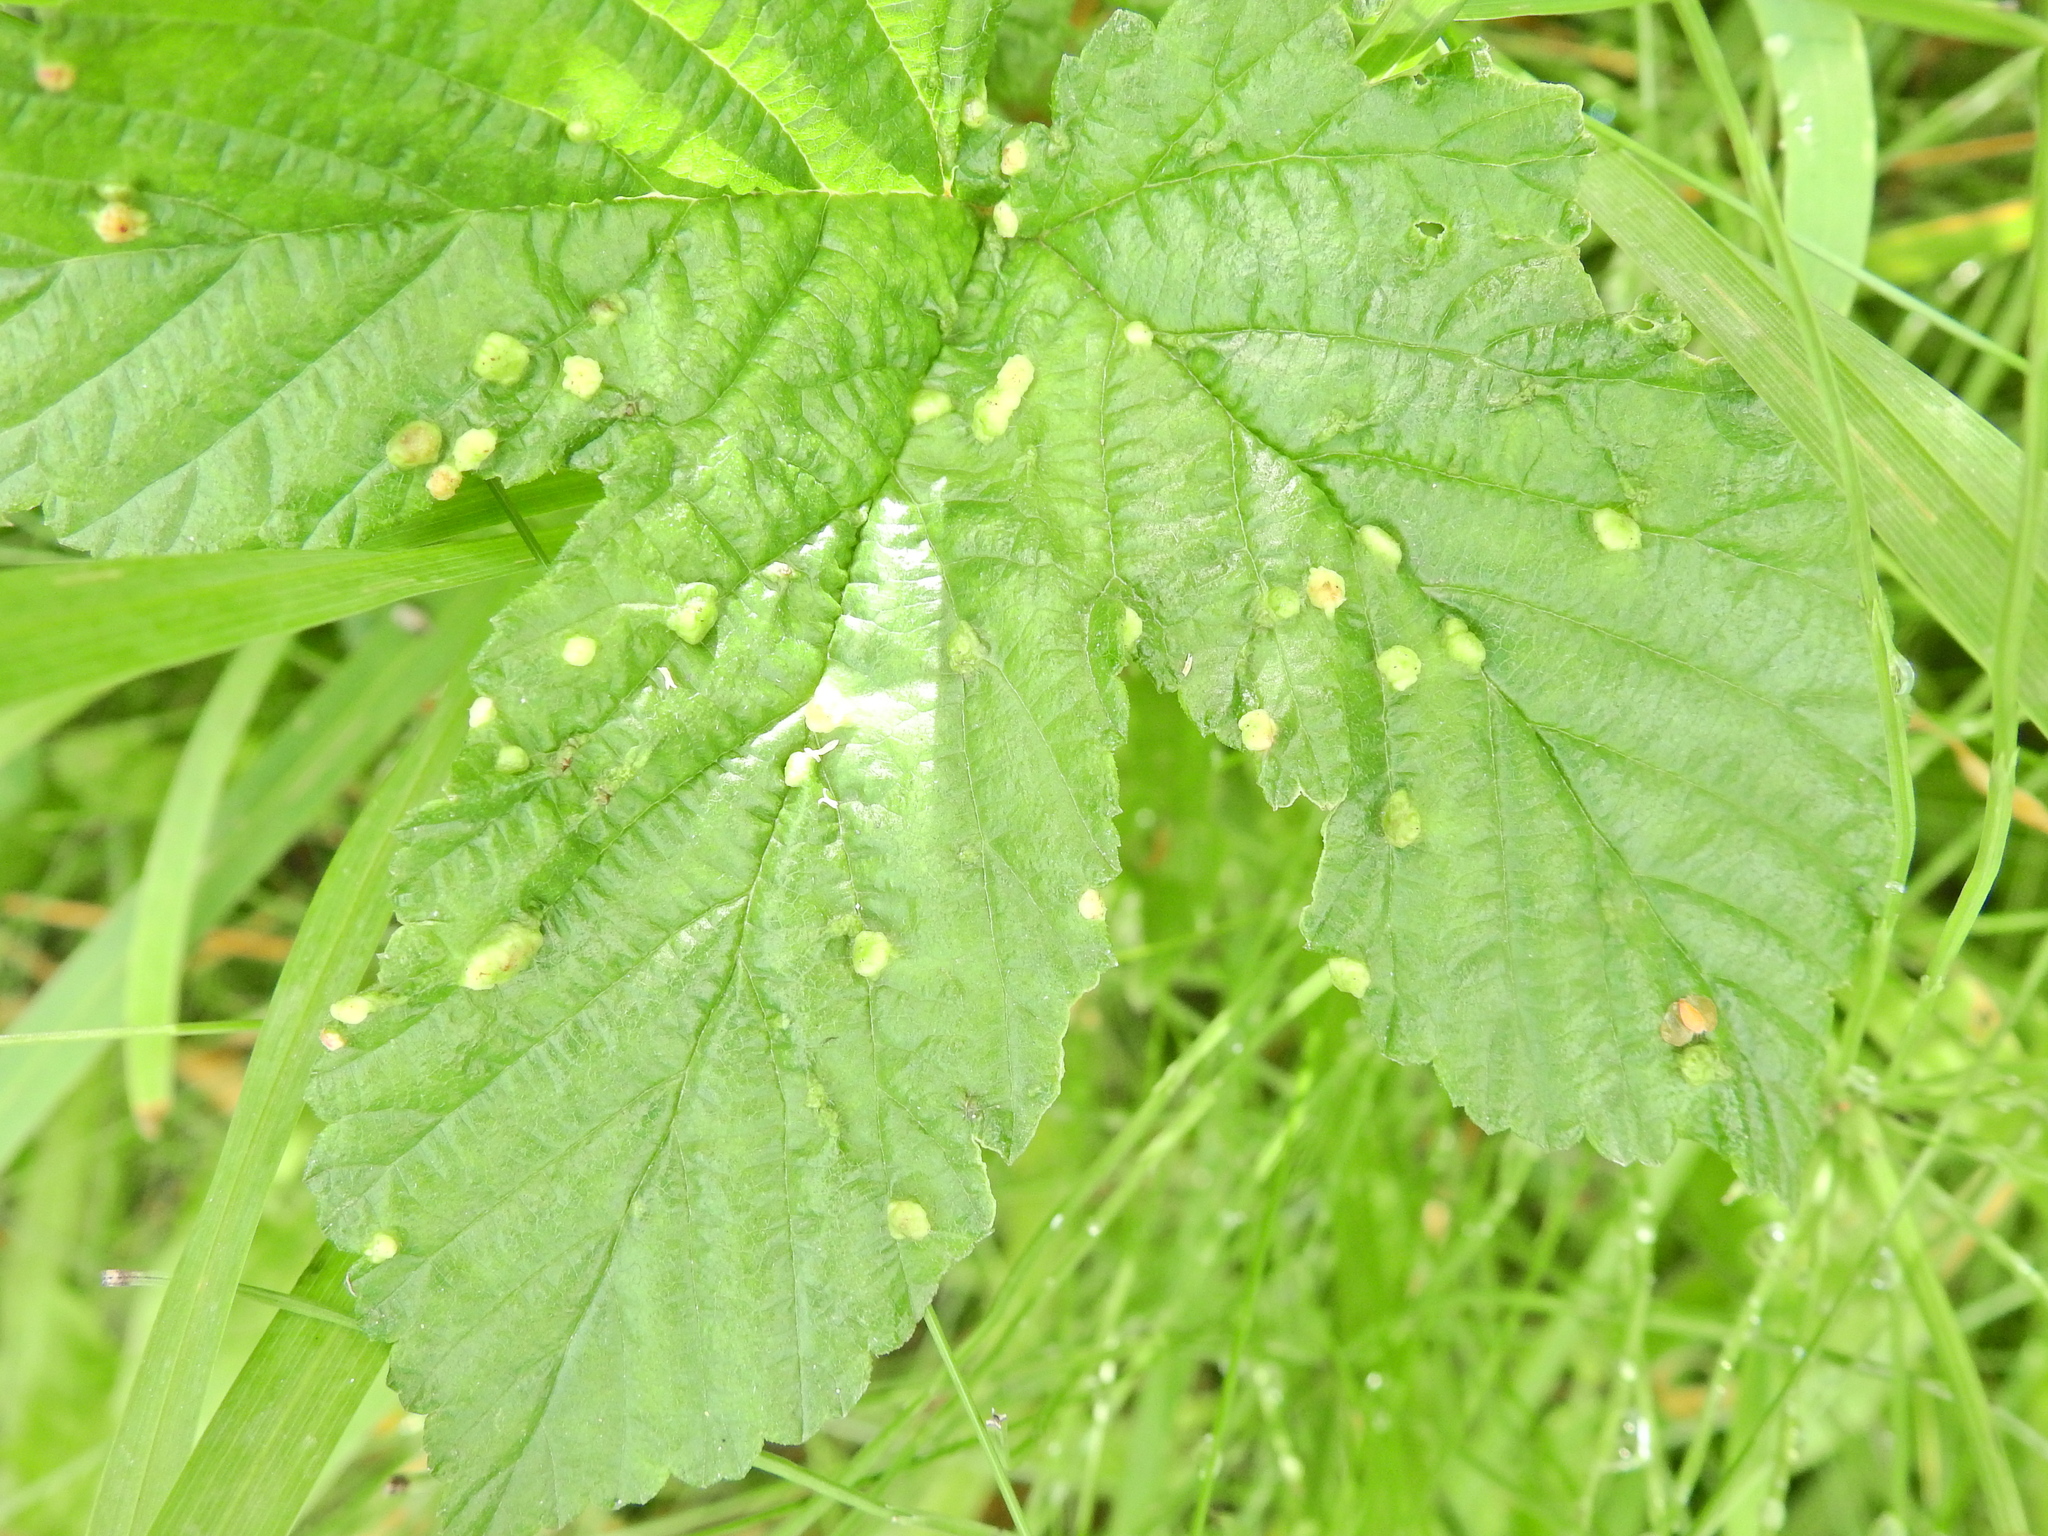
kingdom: Animalia
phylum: Arthropoda
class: Insecta
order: Diptera
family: Cecidomyiidae
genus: Dasineura
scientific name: Dasineura ulmaria
